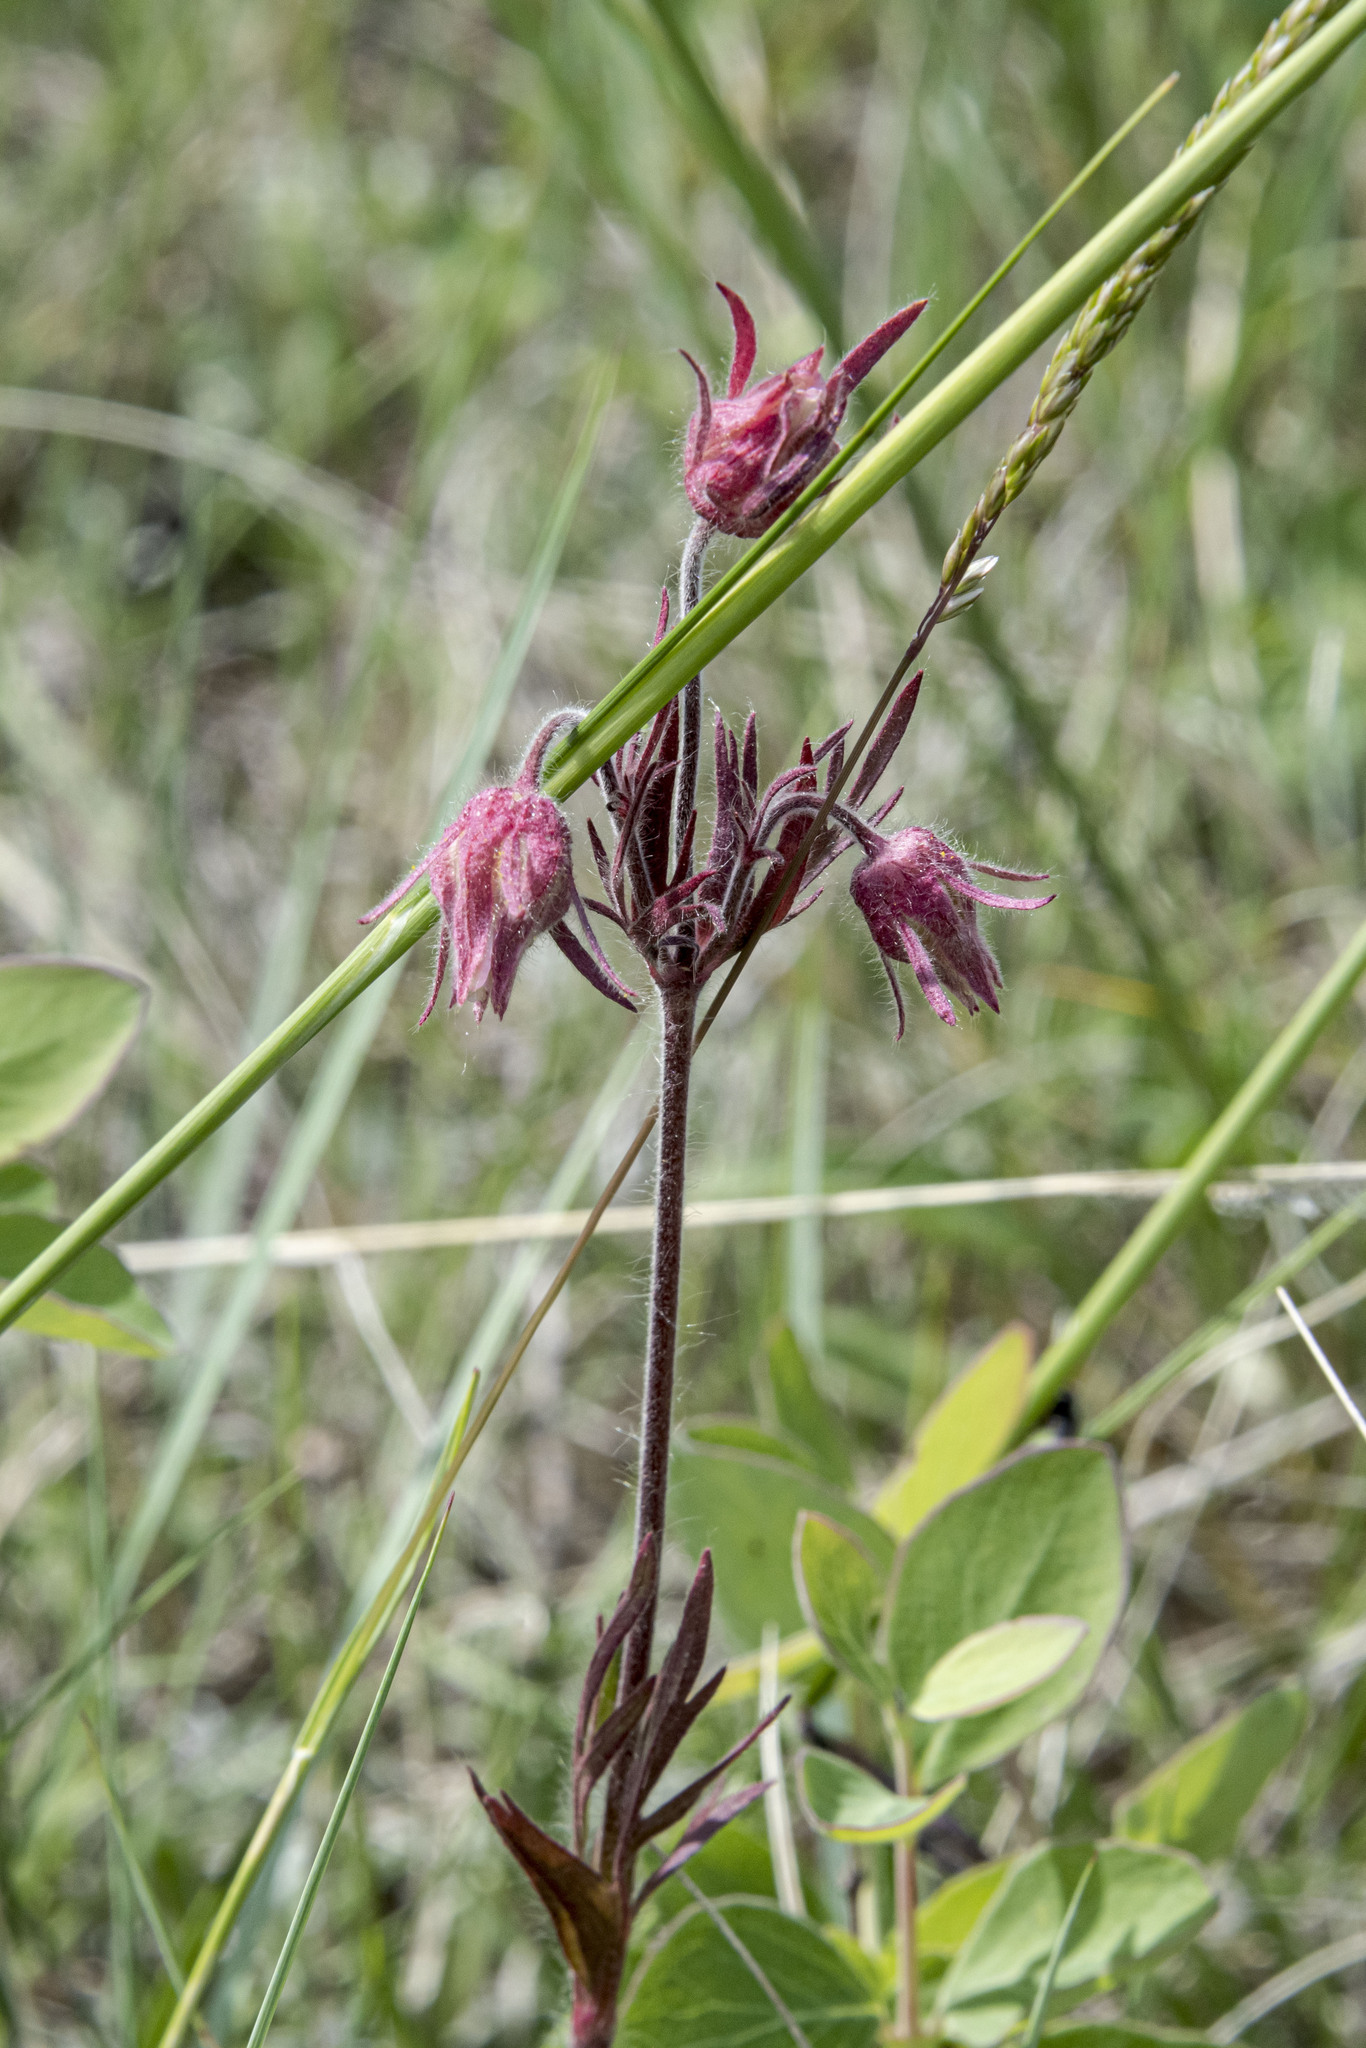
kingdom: Plantae
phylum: Tracheophyta
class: Magnoliopsida
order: Rosales
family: Rosaceae
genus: Geum
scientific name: Geum triflorum
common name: Old man's whiskers
